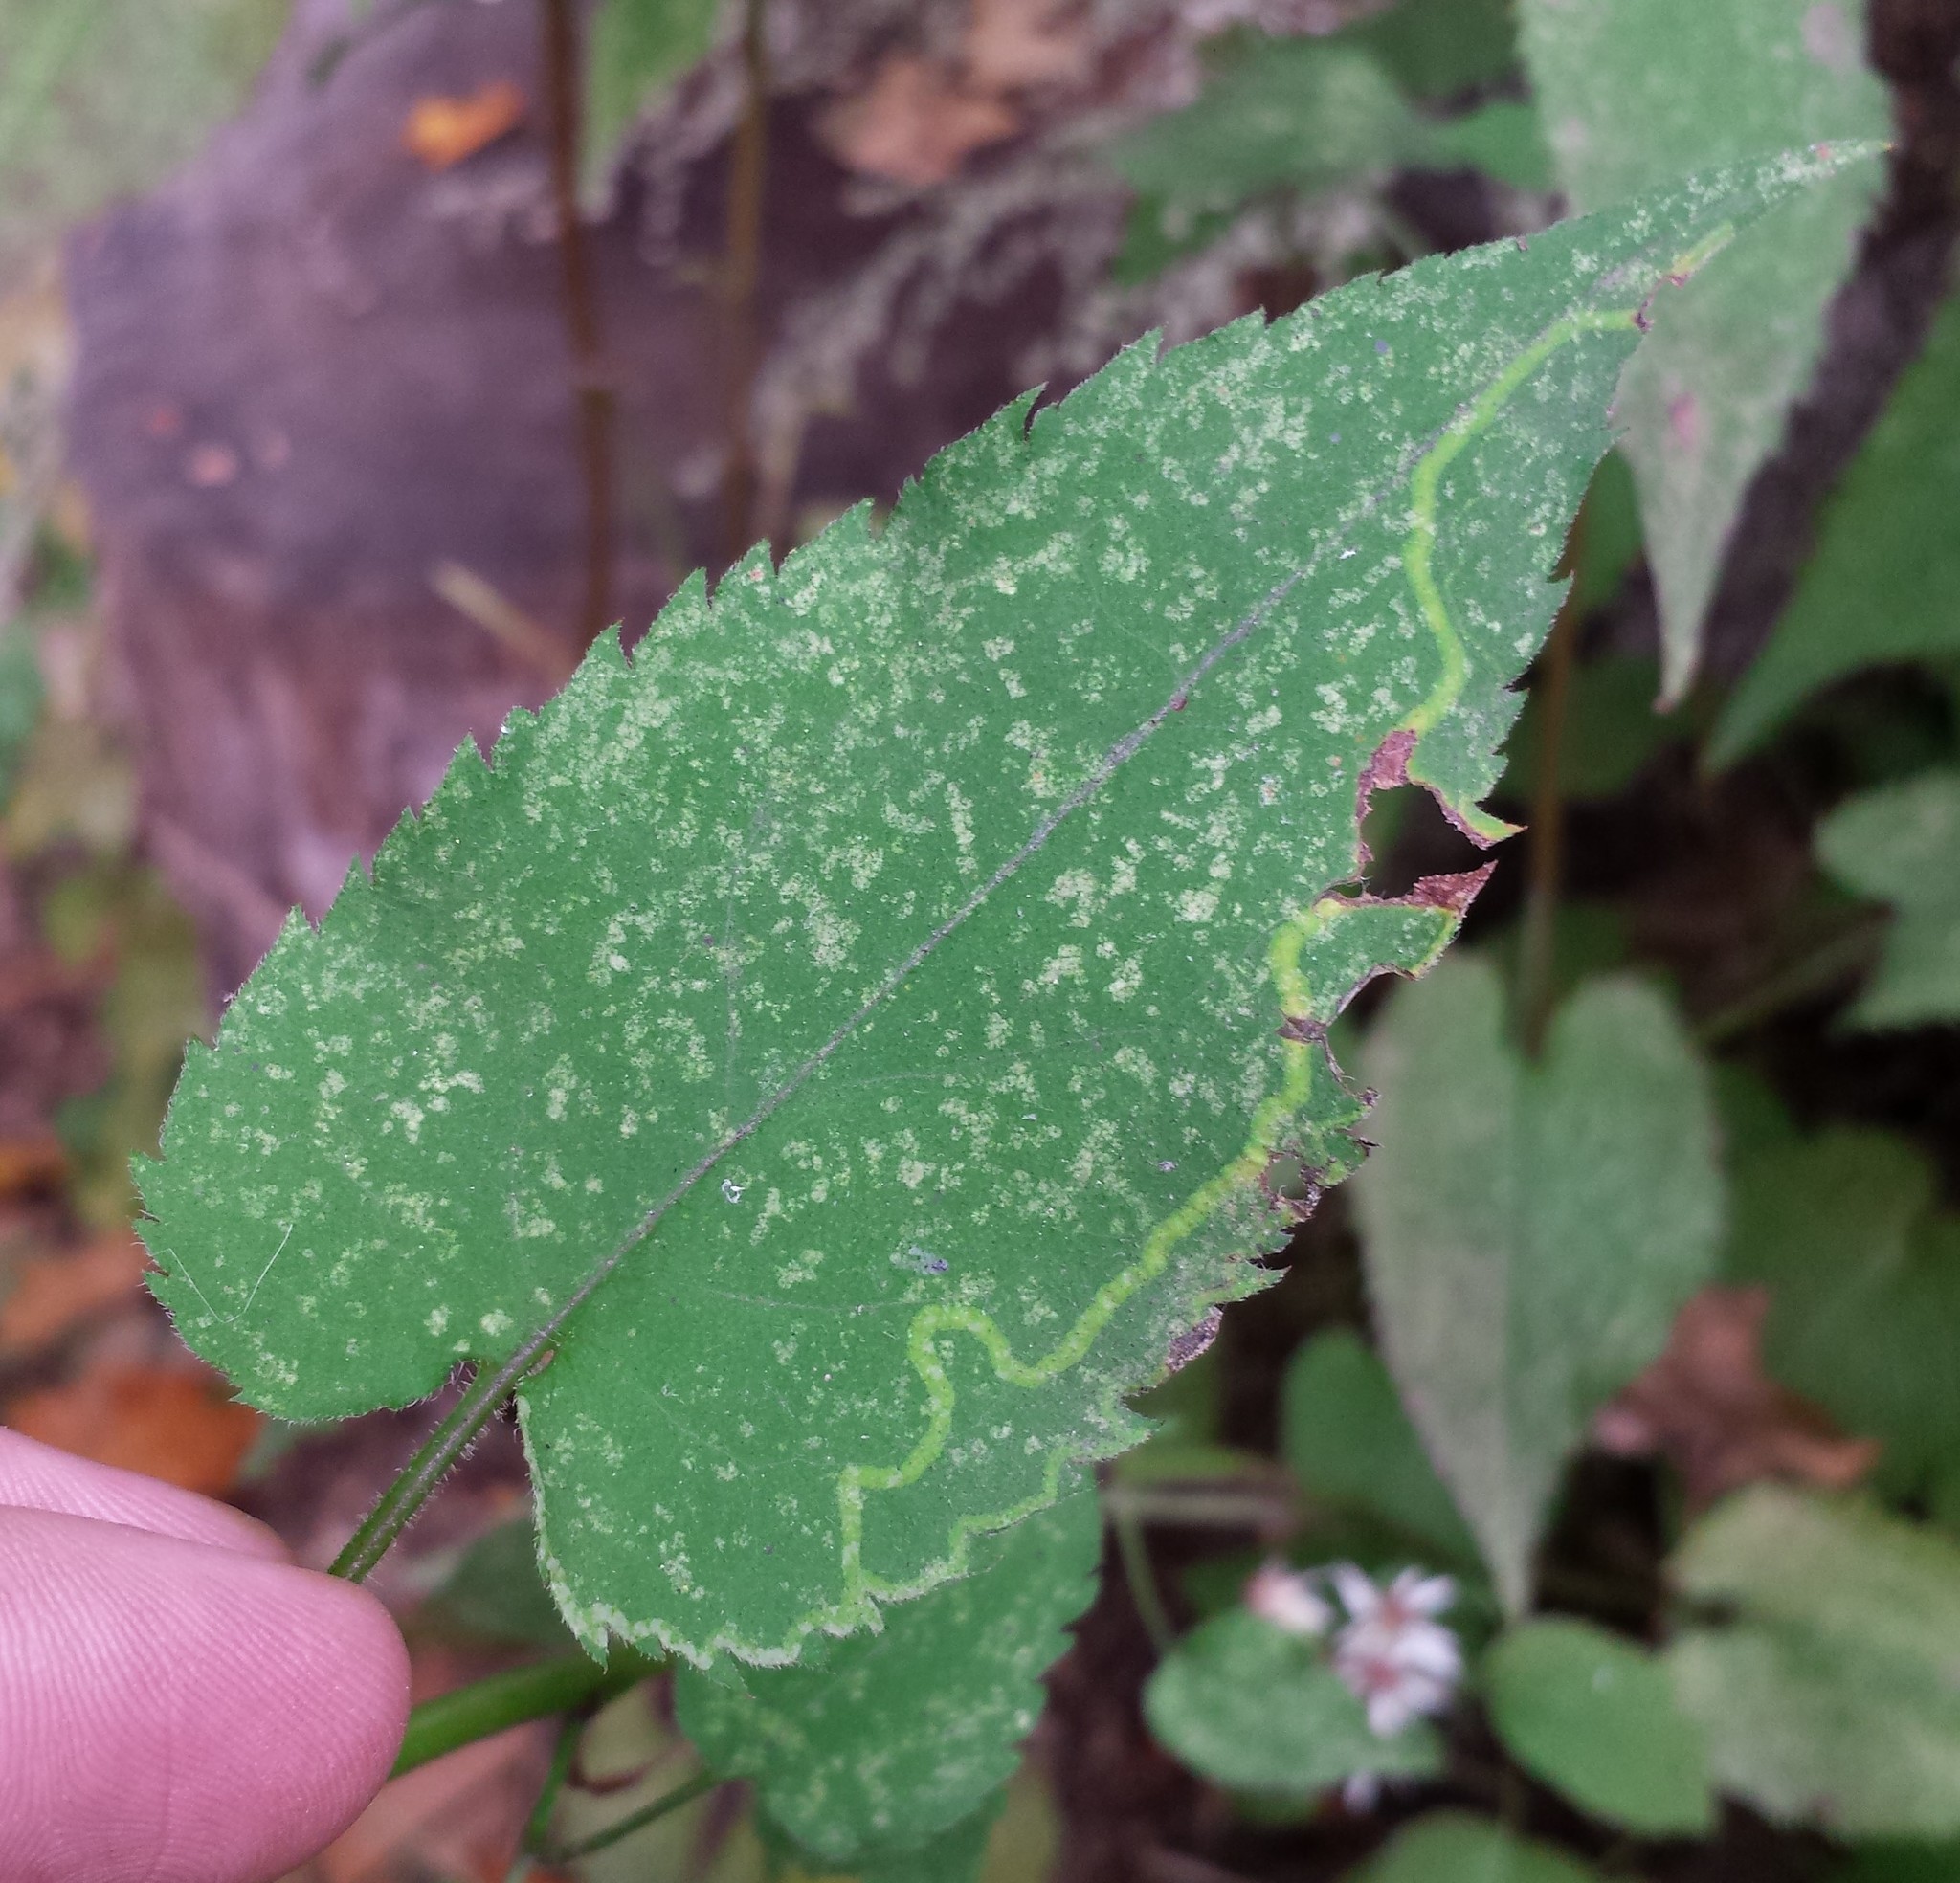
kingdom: Animalia
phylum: Arthropoda
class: Insecta
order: Diptera
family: Agromyzidae
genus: Ophiomyia
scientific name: Ophiomyia parda
